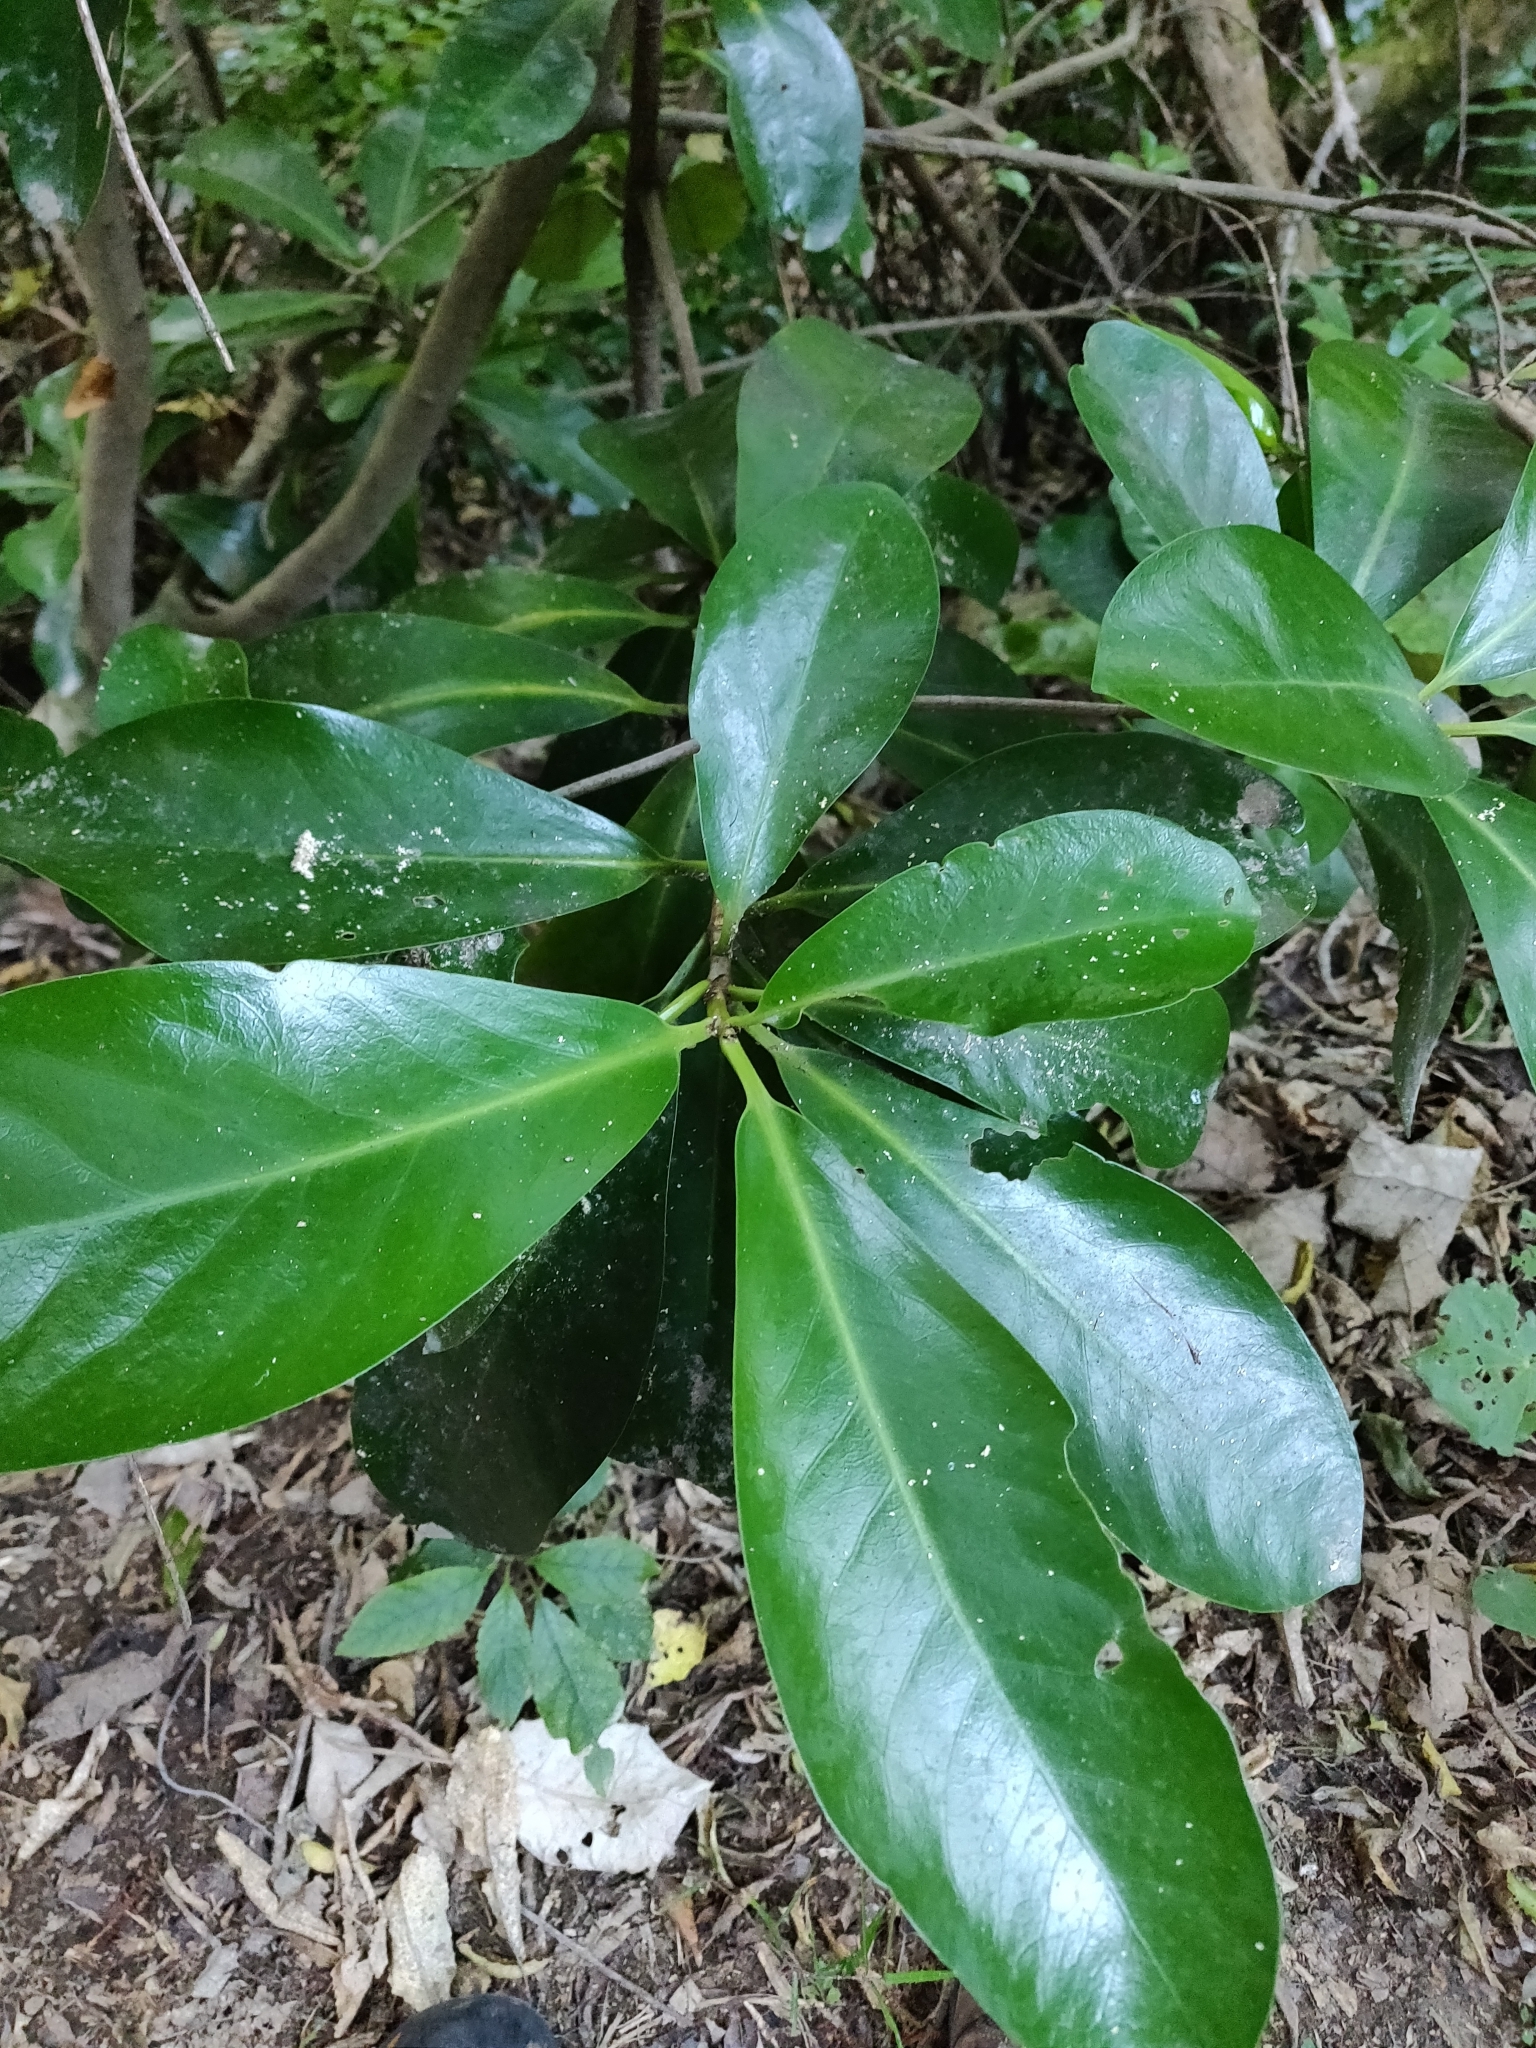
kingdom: Plantae
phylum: Tracheophyta
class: Magnoliopsida
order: Cucurbitales
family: Corynocarpaceae
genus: Corynocarpus
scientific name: Corynocarpus laevigatus
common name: New zealand laurel
